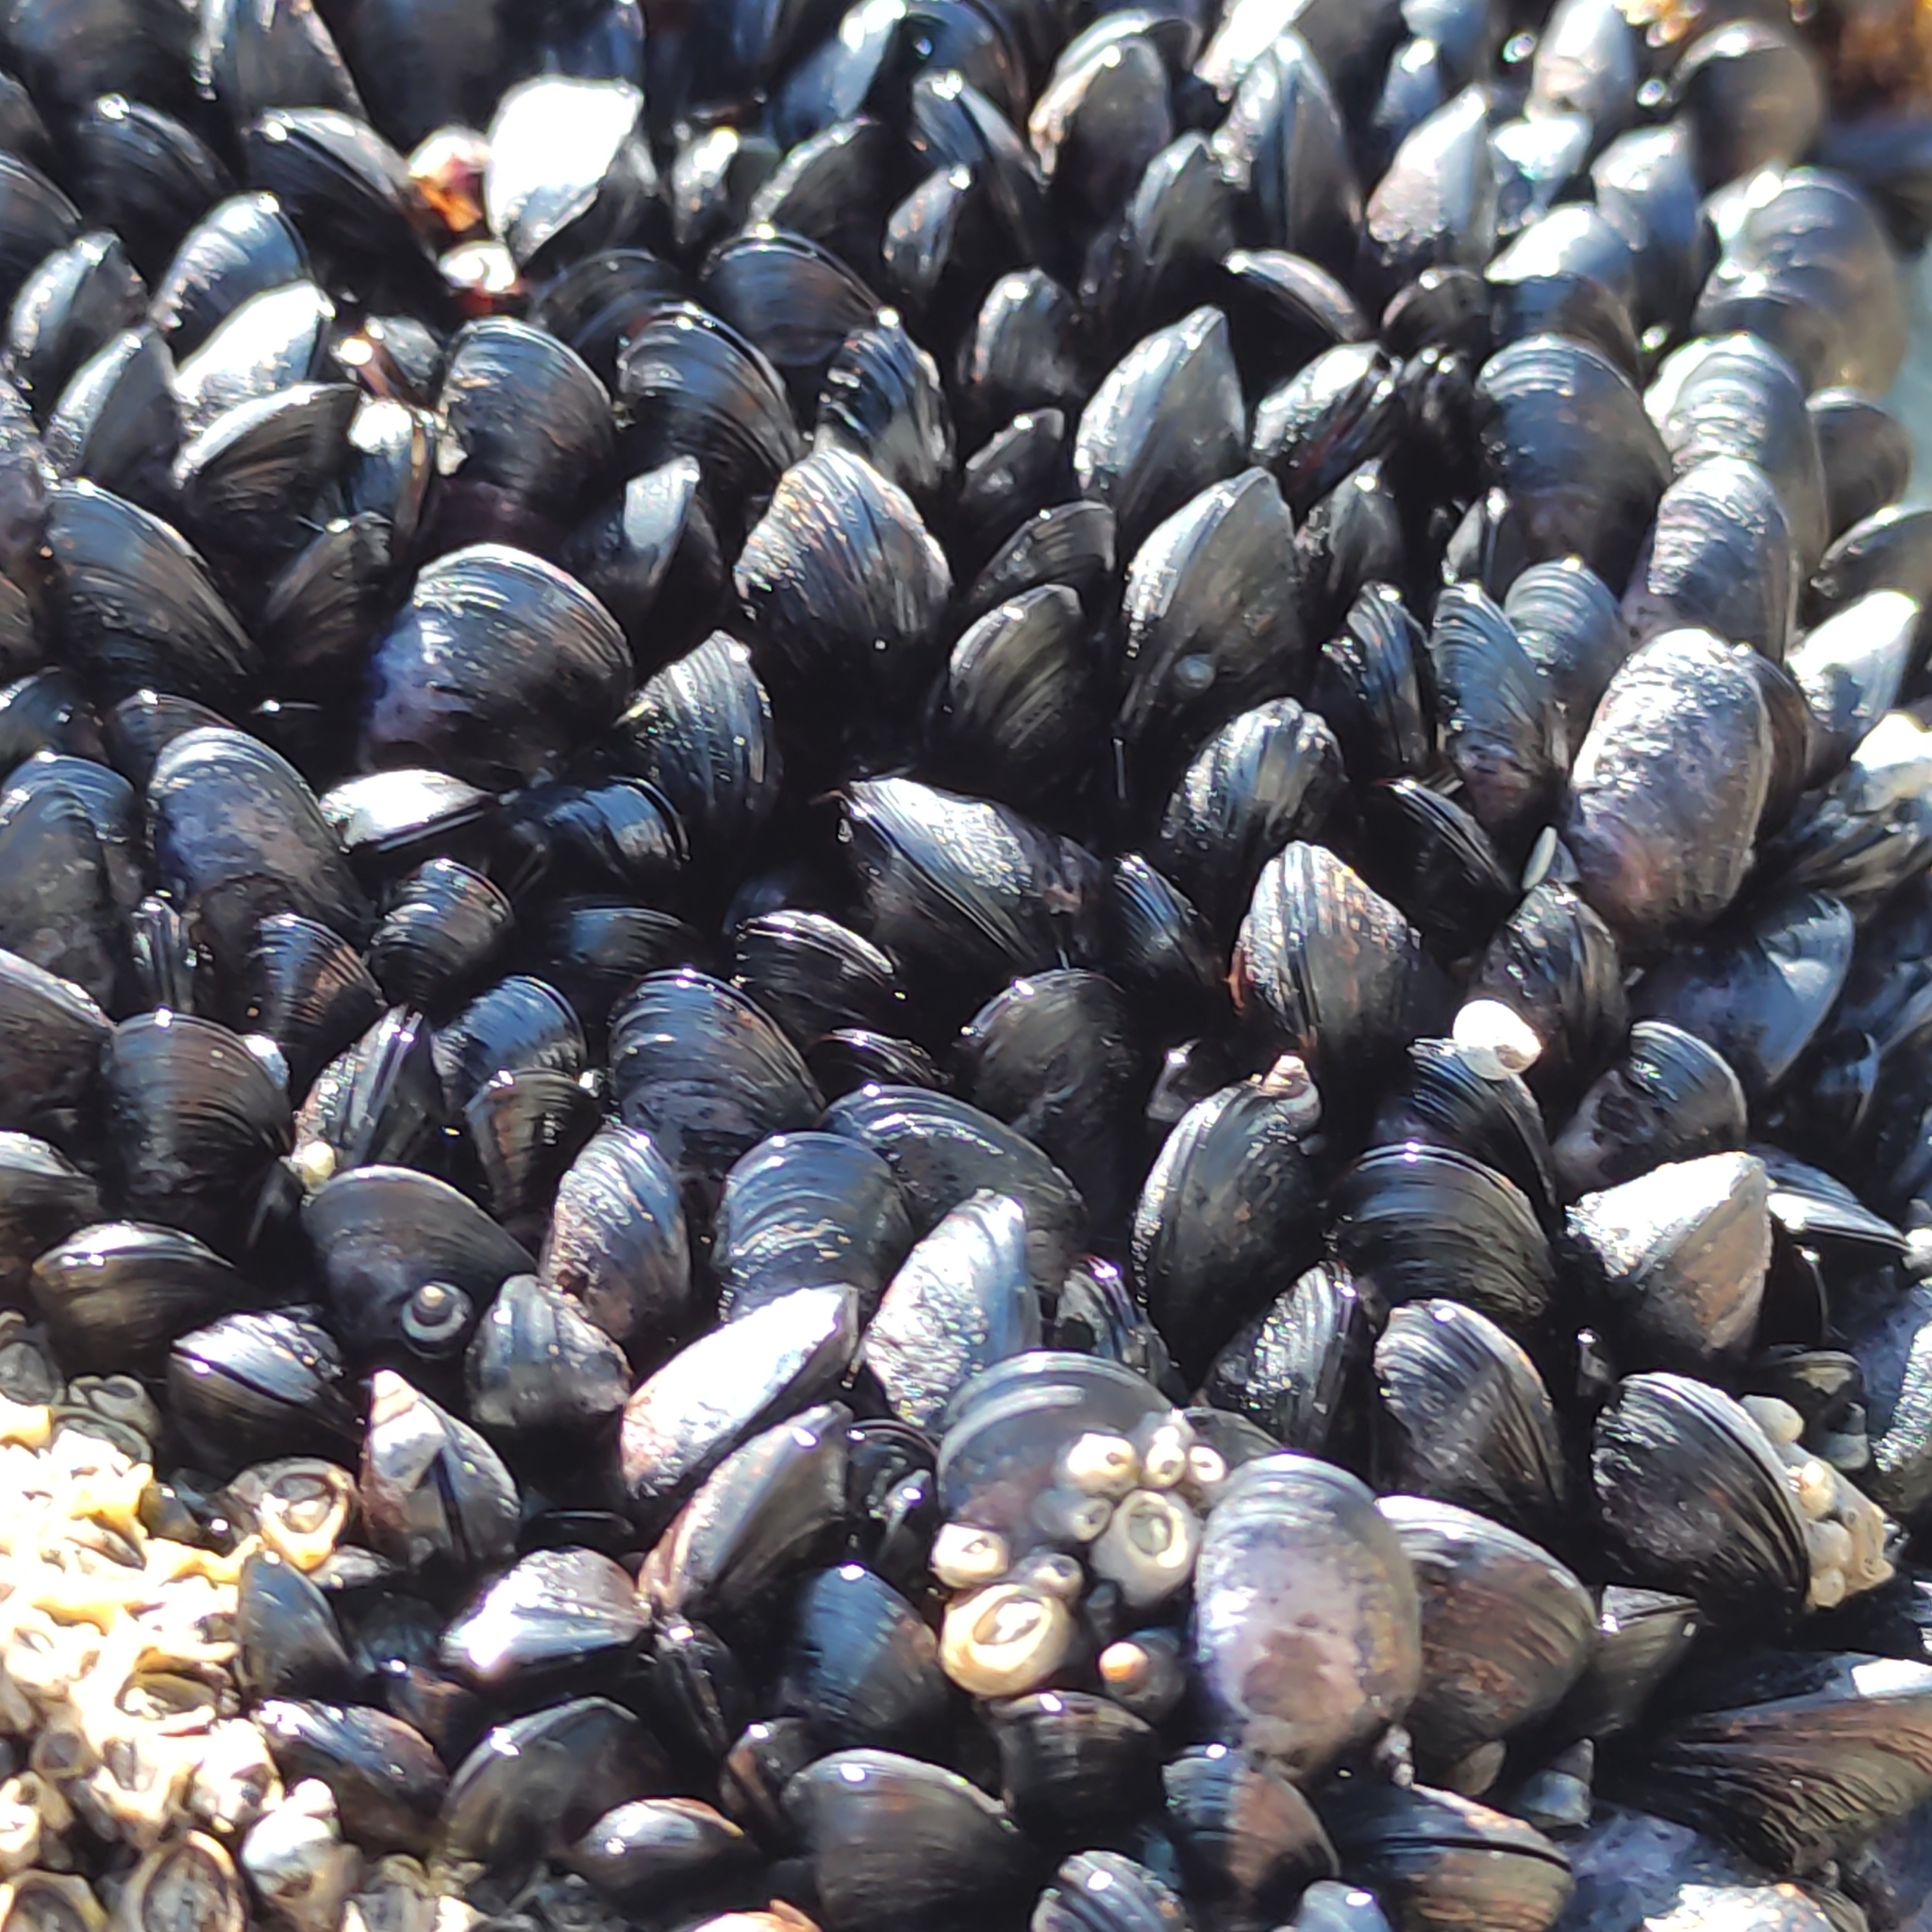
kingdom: Animalia
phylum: Mollusca
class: Bivalvia
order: Mytilida
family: Mytilidae
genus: Xenostrobus
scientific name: Xenostrobus neozelanicus
